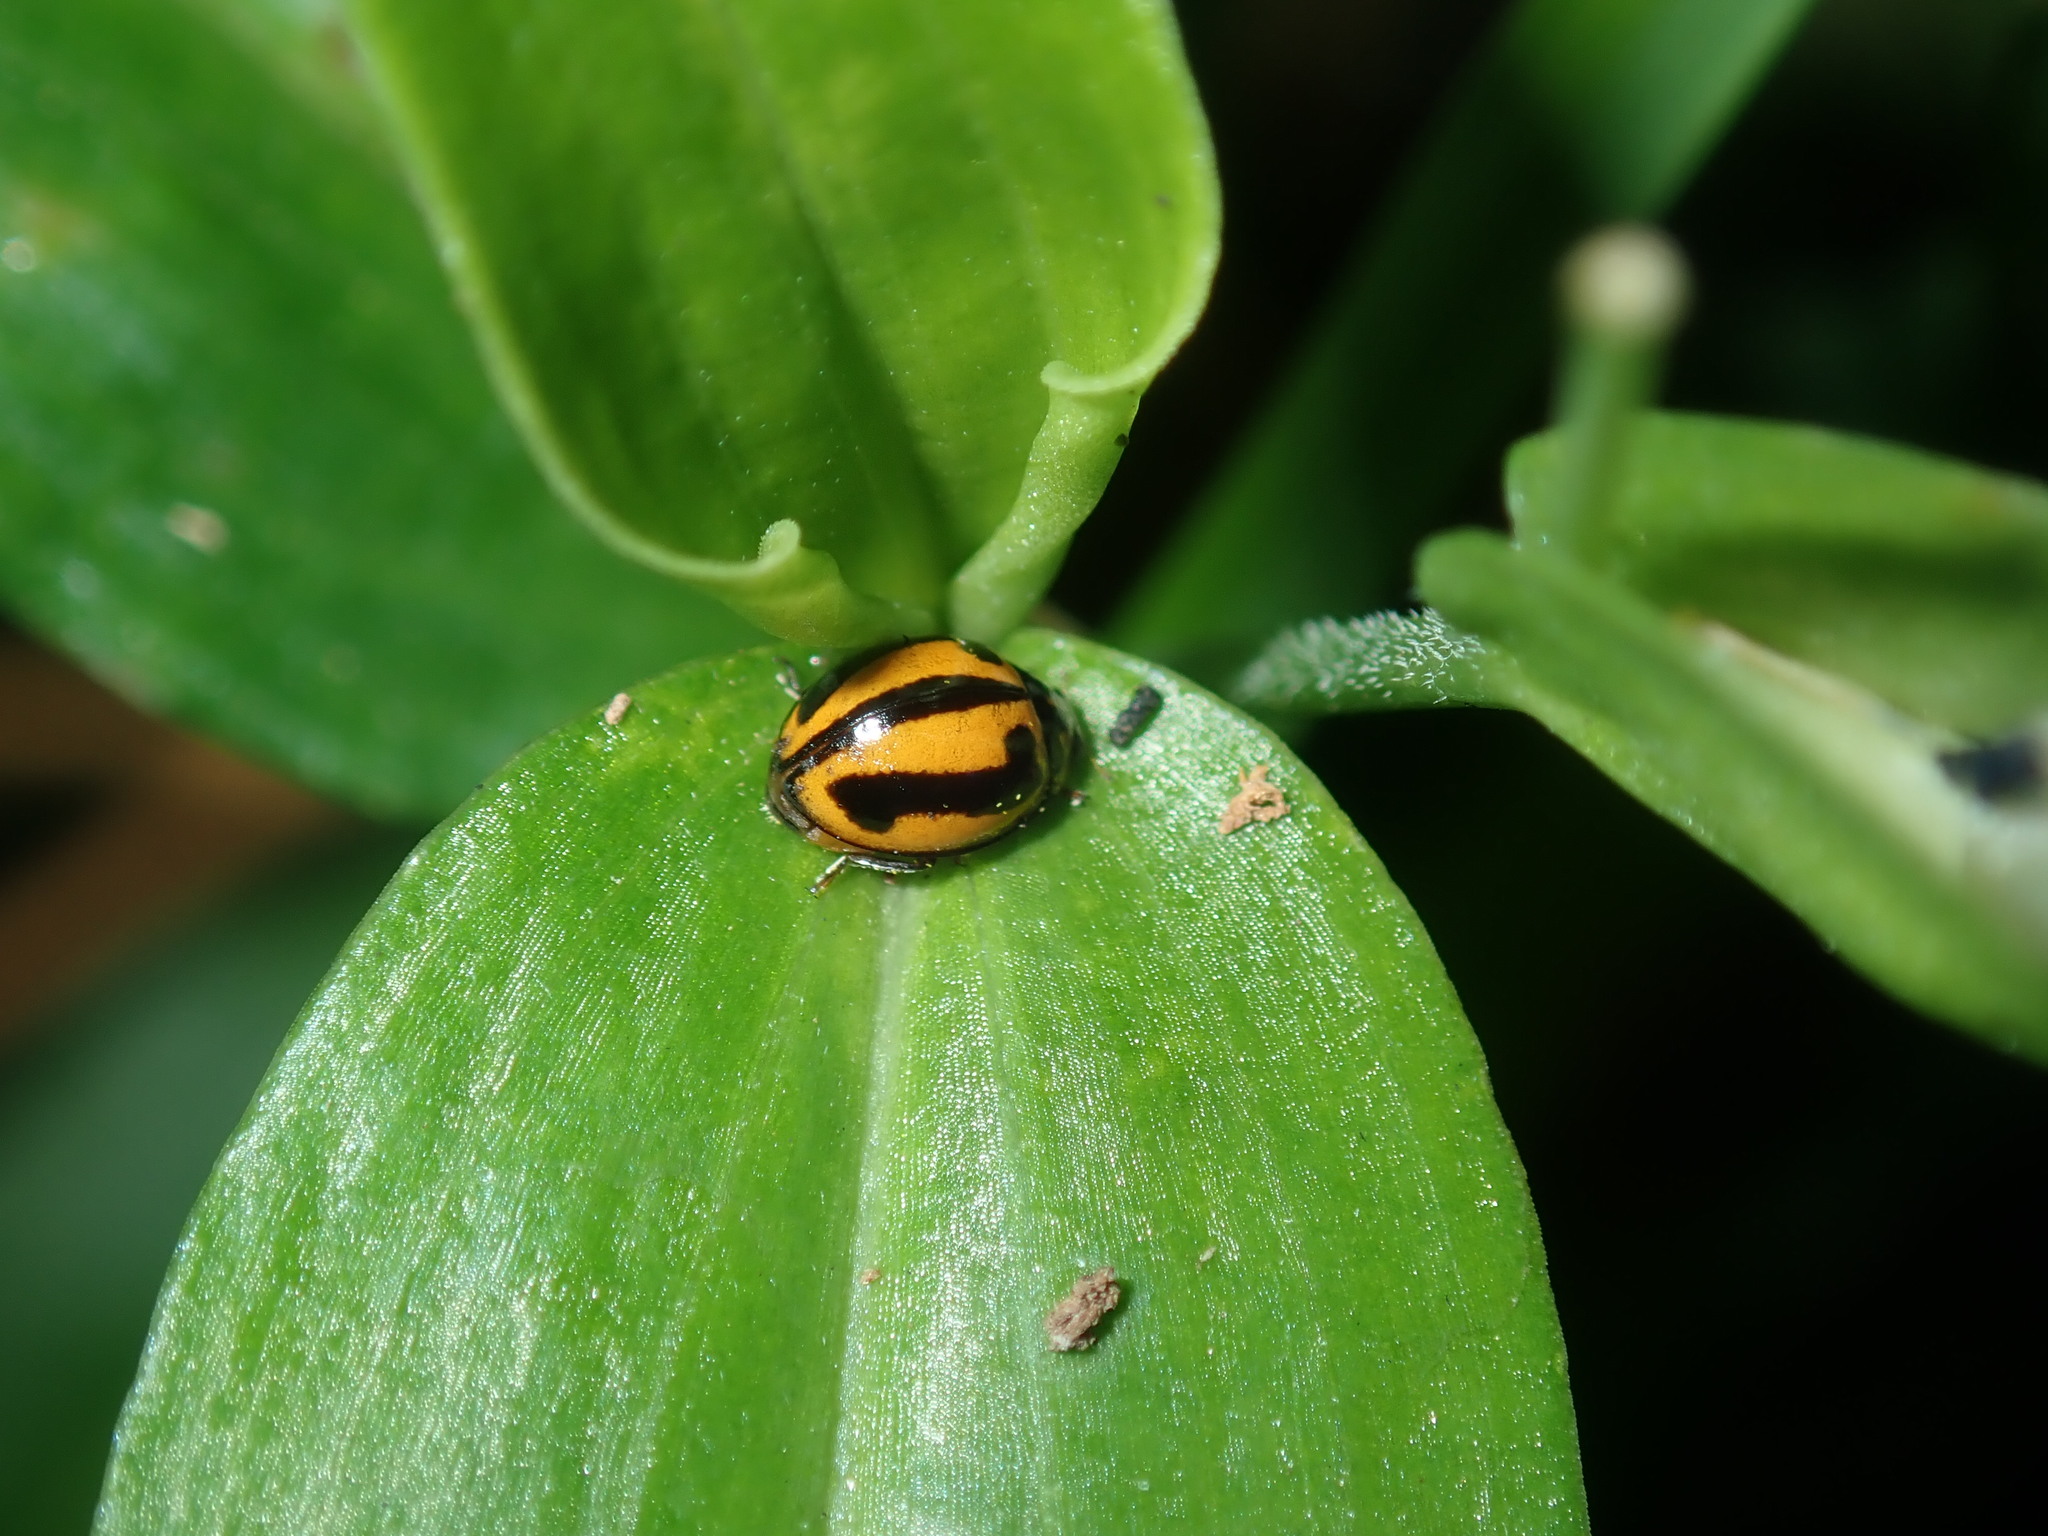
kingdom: Animalia
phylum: Arthropoda
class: Insecta
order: Coleoptera
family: Coccinellidae
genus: Micraspis
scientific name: Micraspis frenata
